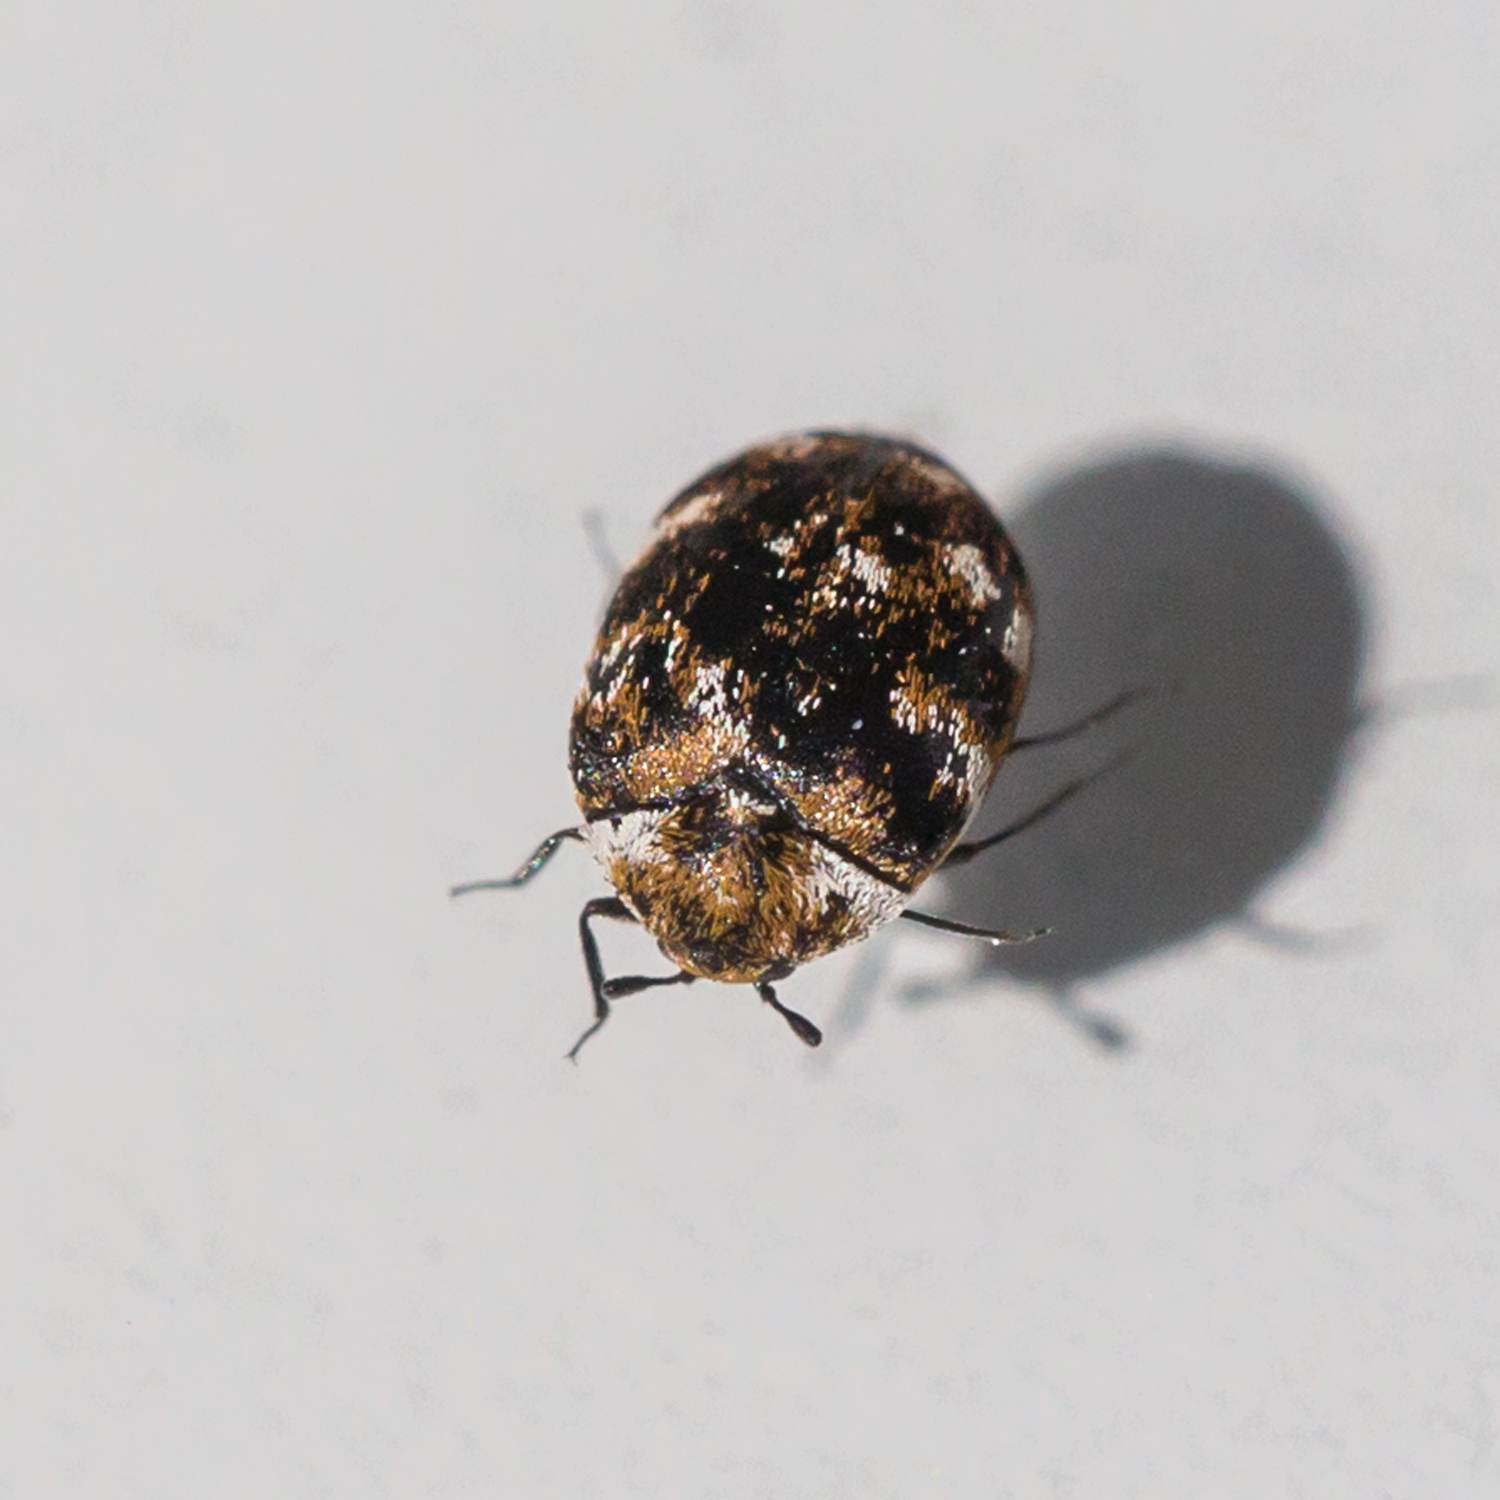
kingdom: Animalia
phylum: Arthropoda
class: Insecta
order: Coleoptera
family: Dermestidae
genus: Anthrenus
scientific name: Anthrenus verbasci
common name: Varied carpet beetle
